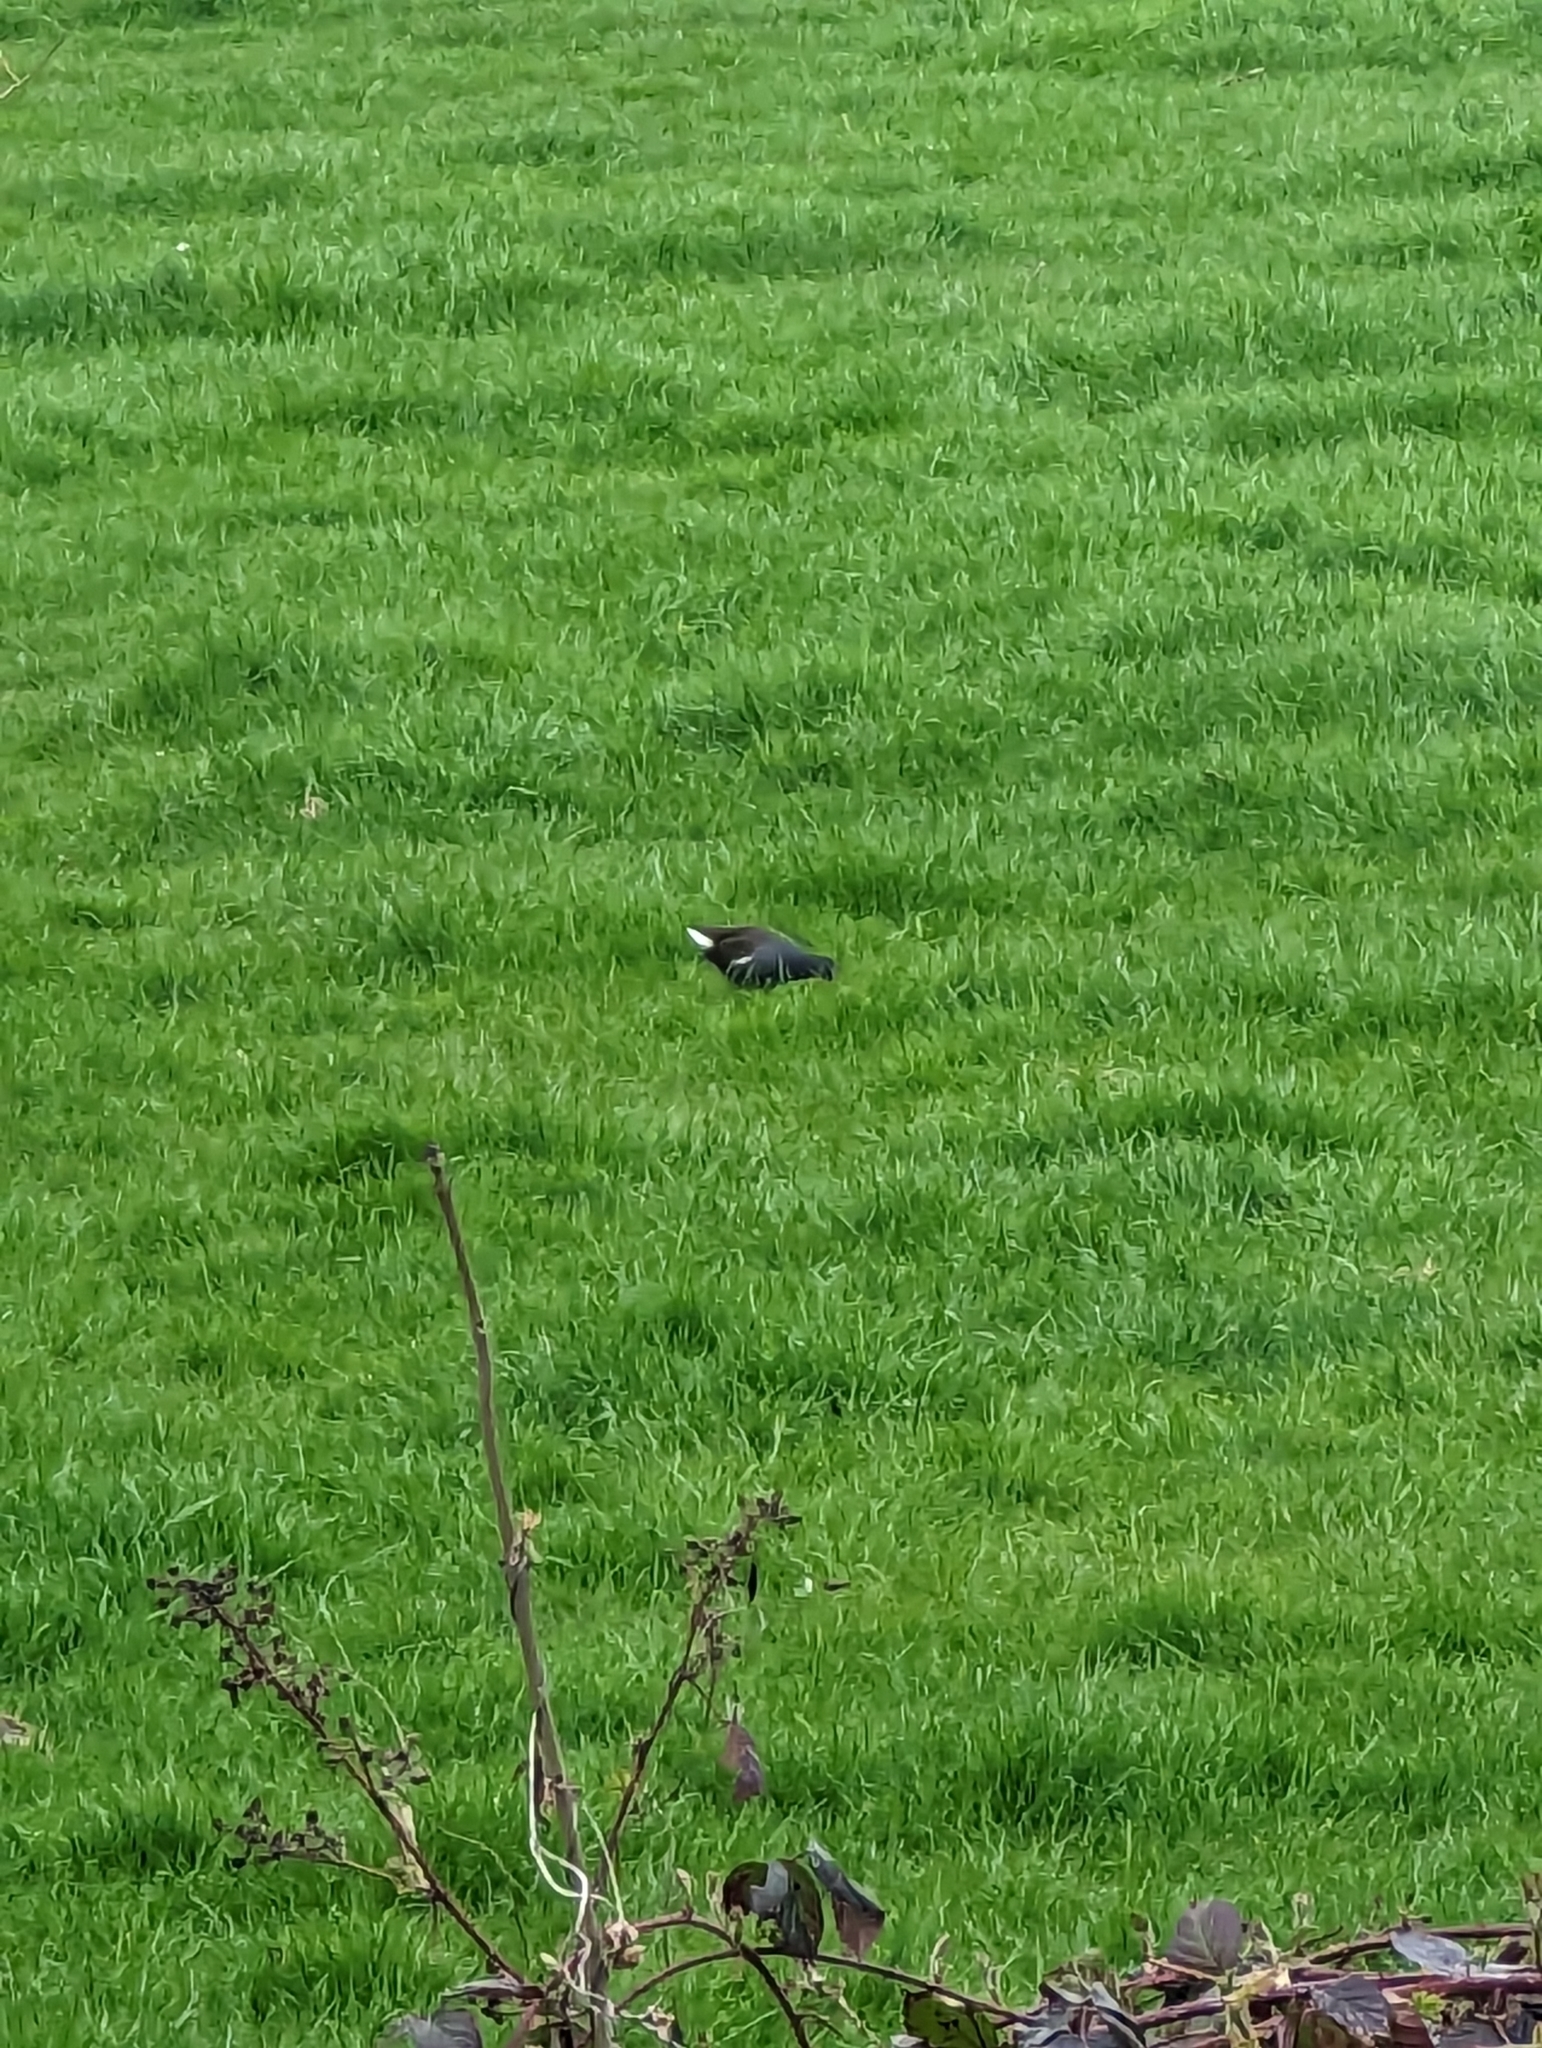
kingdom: Animalia
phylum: Chordata
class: Aves
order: Gruiformes
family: Rallidae
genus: Gallinula
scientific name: Gallinula chloropus
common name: Common moorhen
